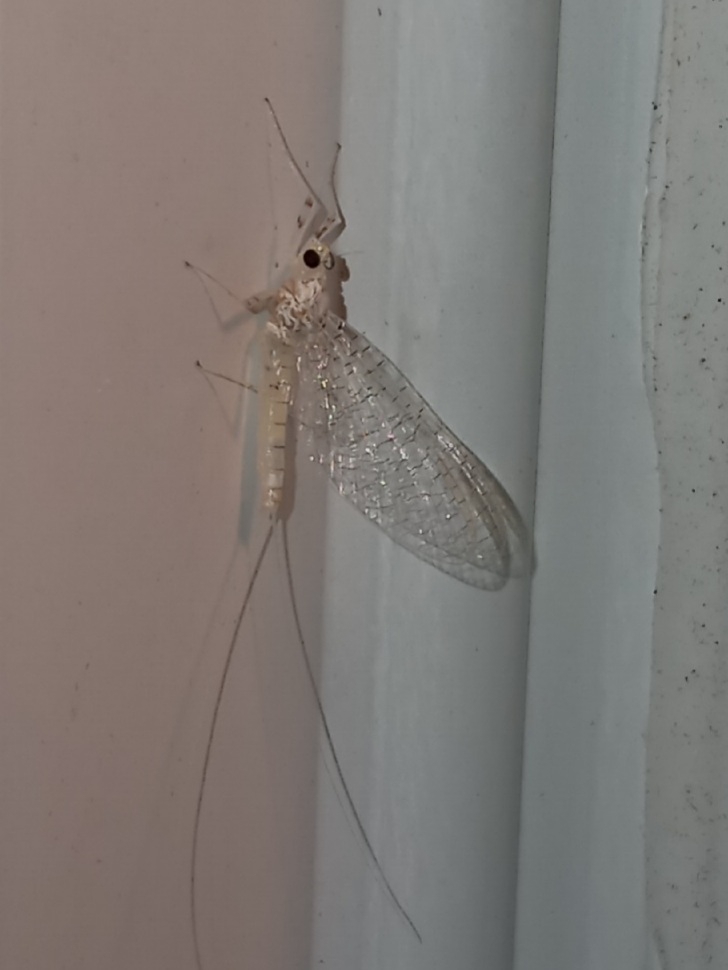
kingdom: Animalia
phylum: Arthropoda
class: Insecta
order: Ephemeroptera
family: Heptageniidae
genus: Maccaffertium
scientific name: Maccaffertium terminatum
